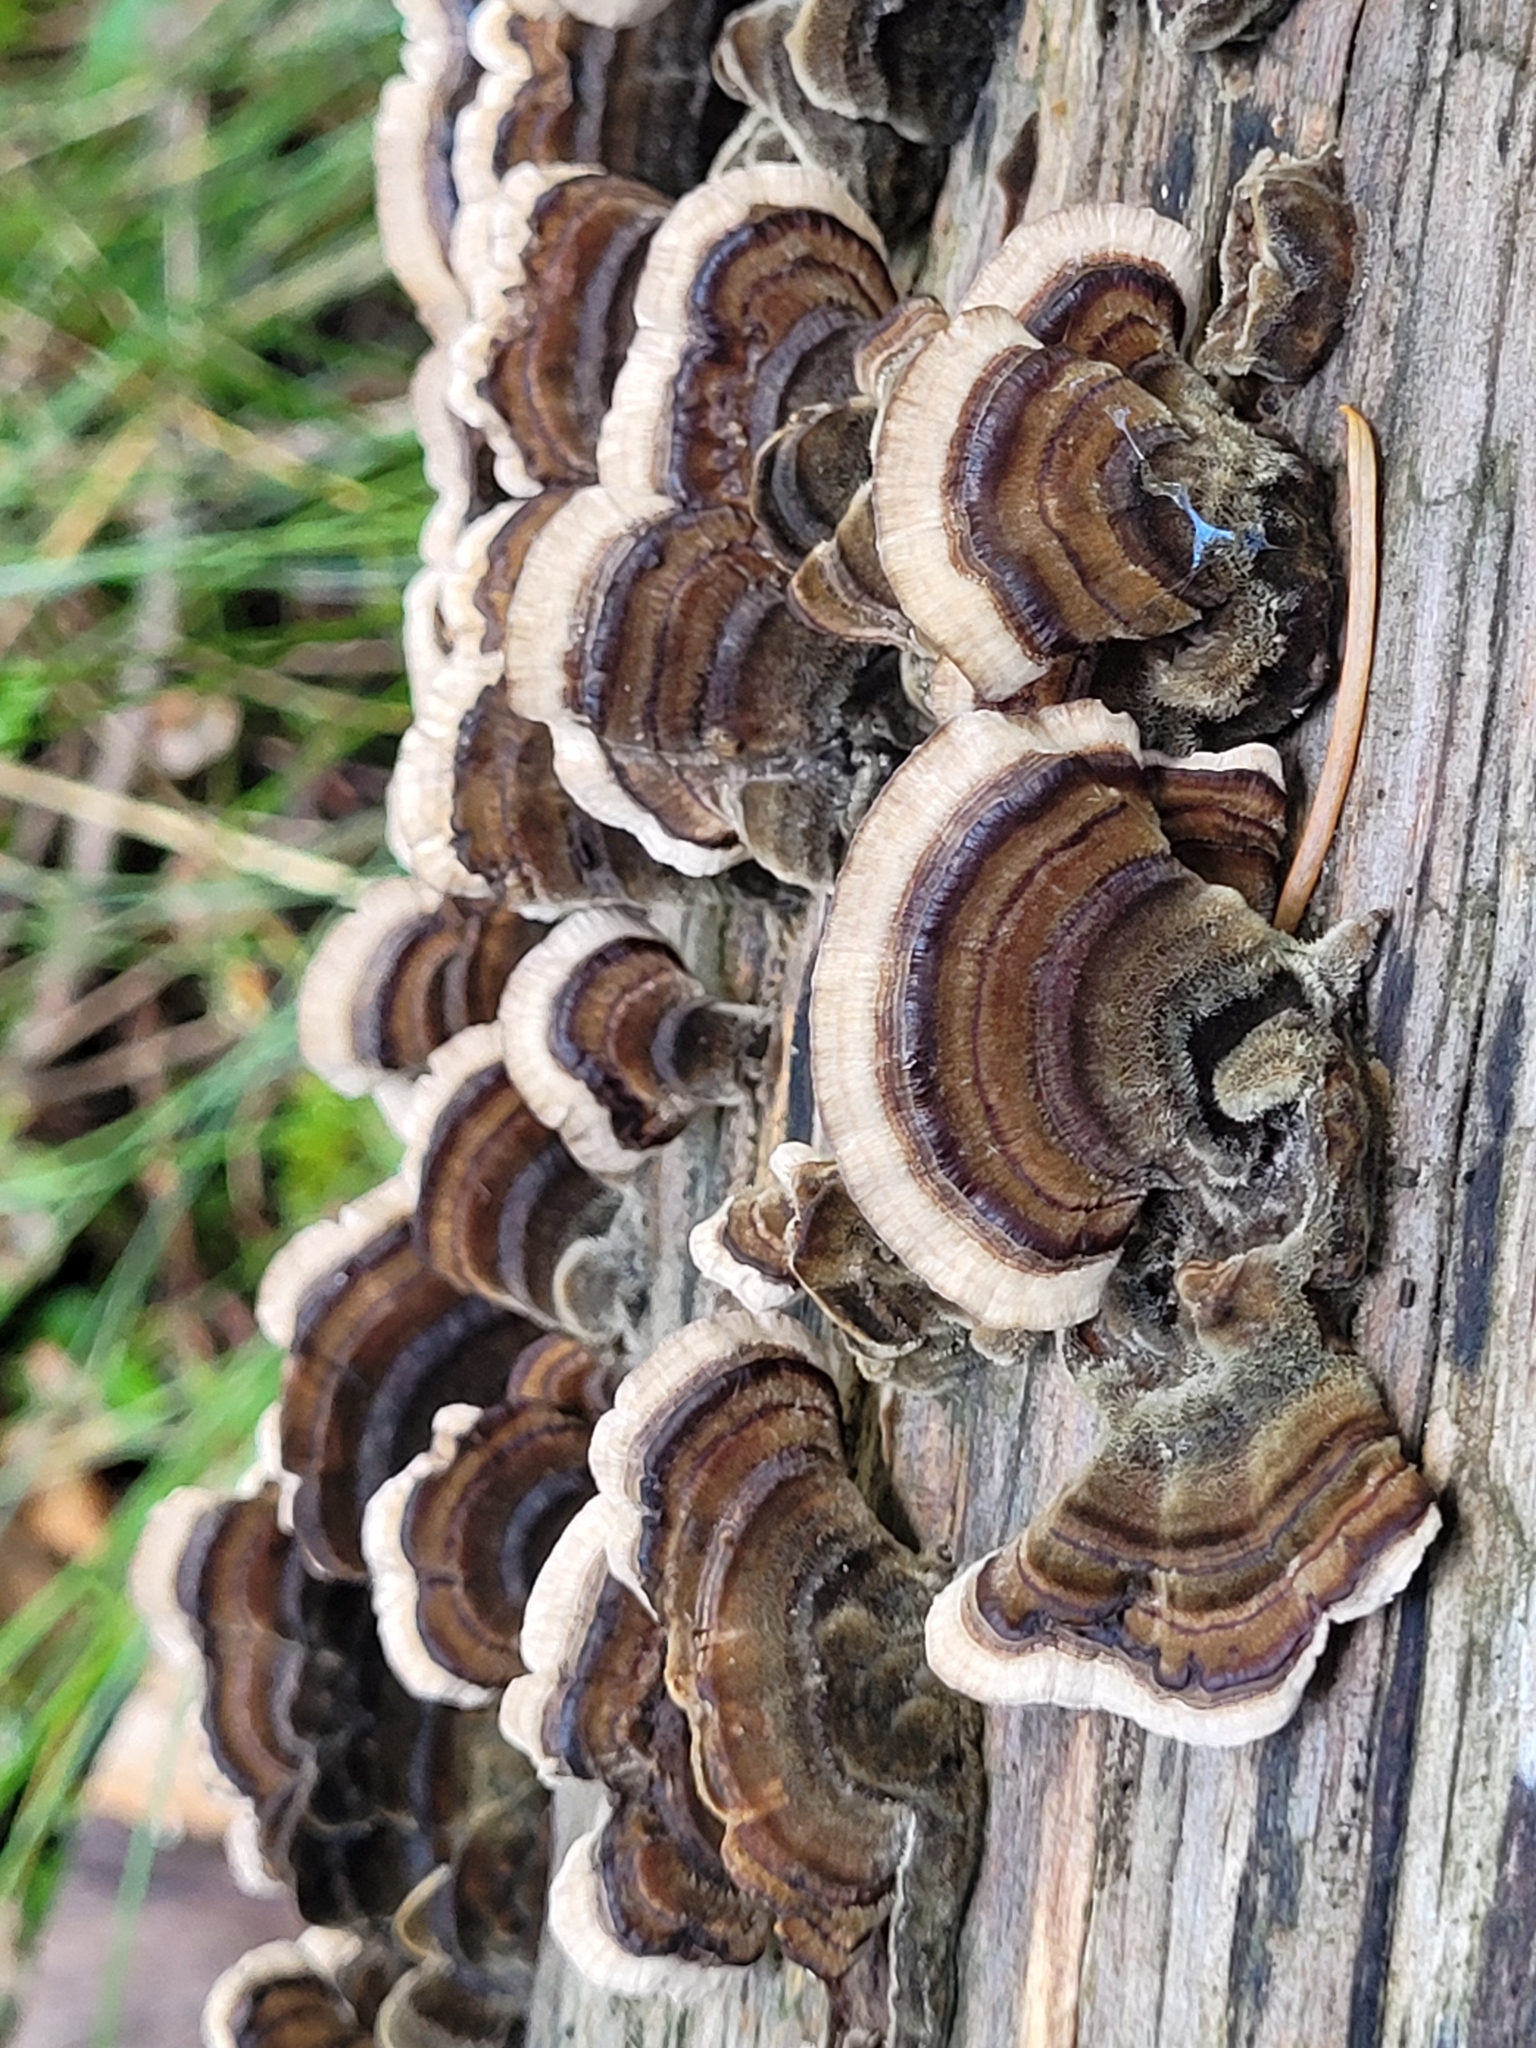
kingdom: Fungi
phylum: Basidiomycota
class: Agaricomycetes
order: Polyporales
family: Polyporaceae
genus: Trametes
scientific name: Trametes versicolor
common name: Turkeytail
